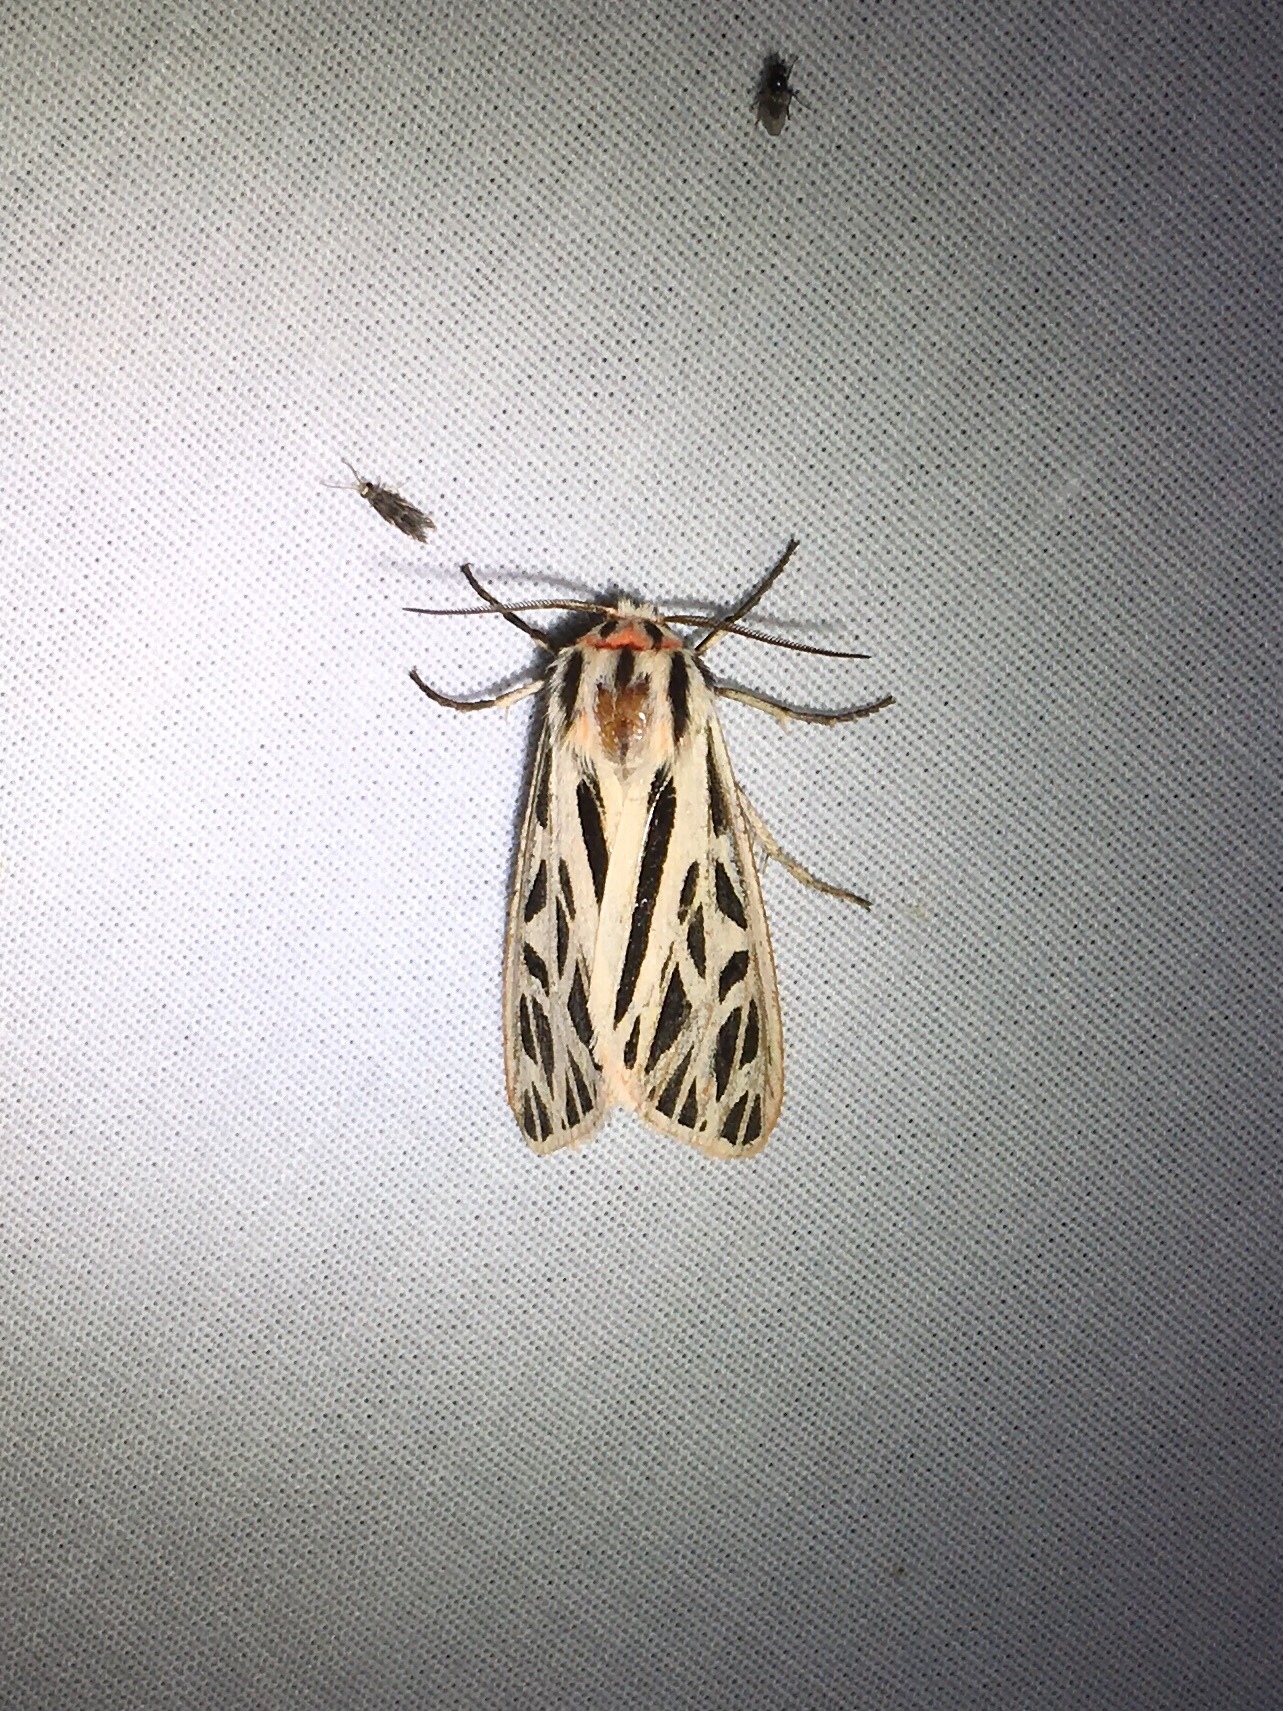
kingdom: Animalia
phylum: Arthropoda
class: Insecta
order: Lepidoptera
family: Erebidae
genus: Apantesis
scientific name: Apantesis arge
